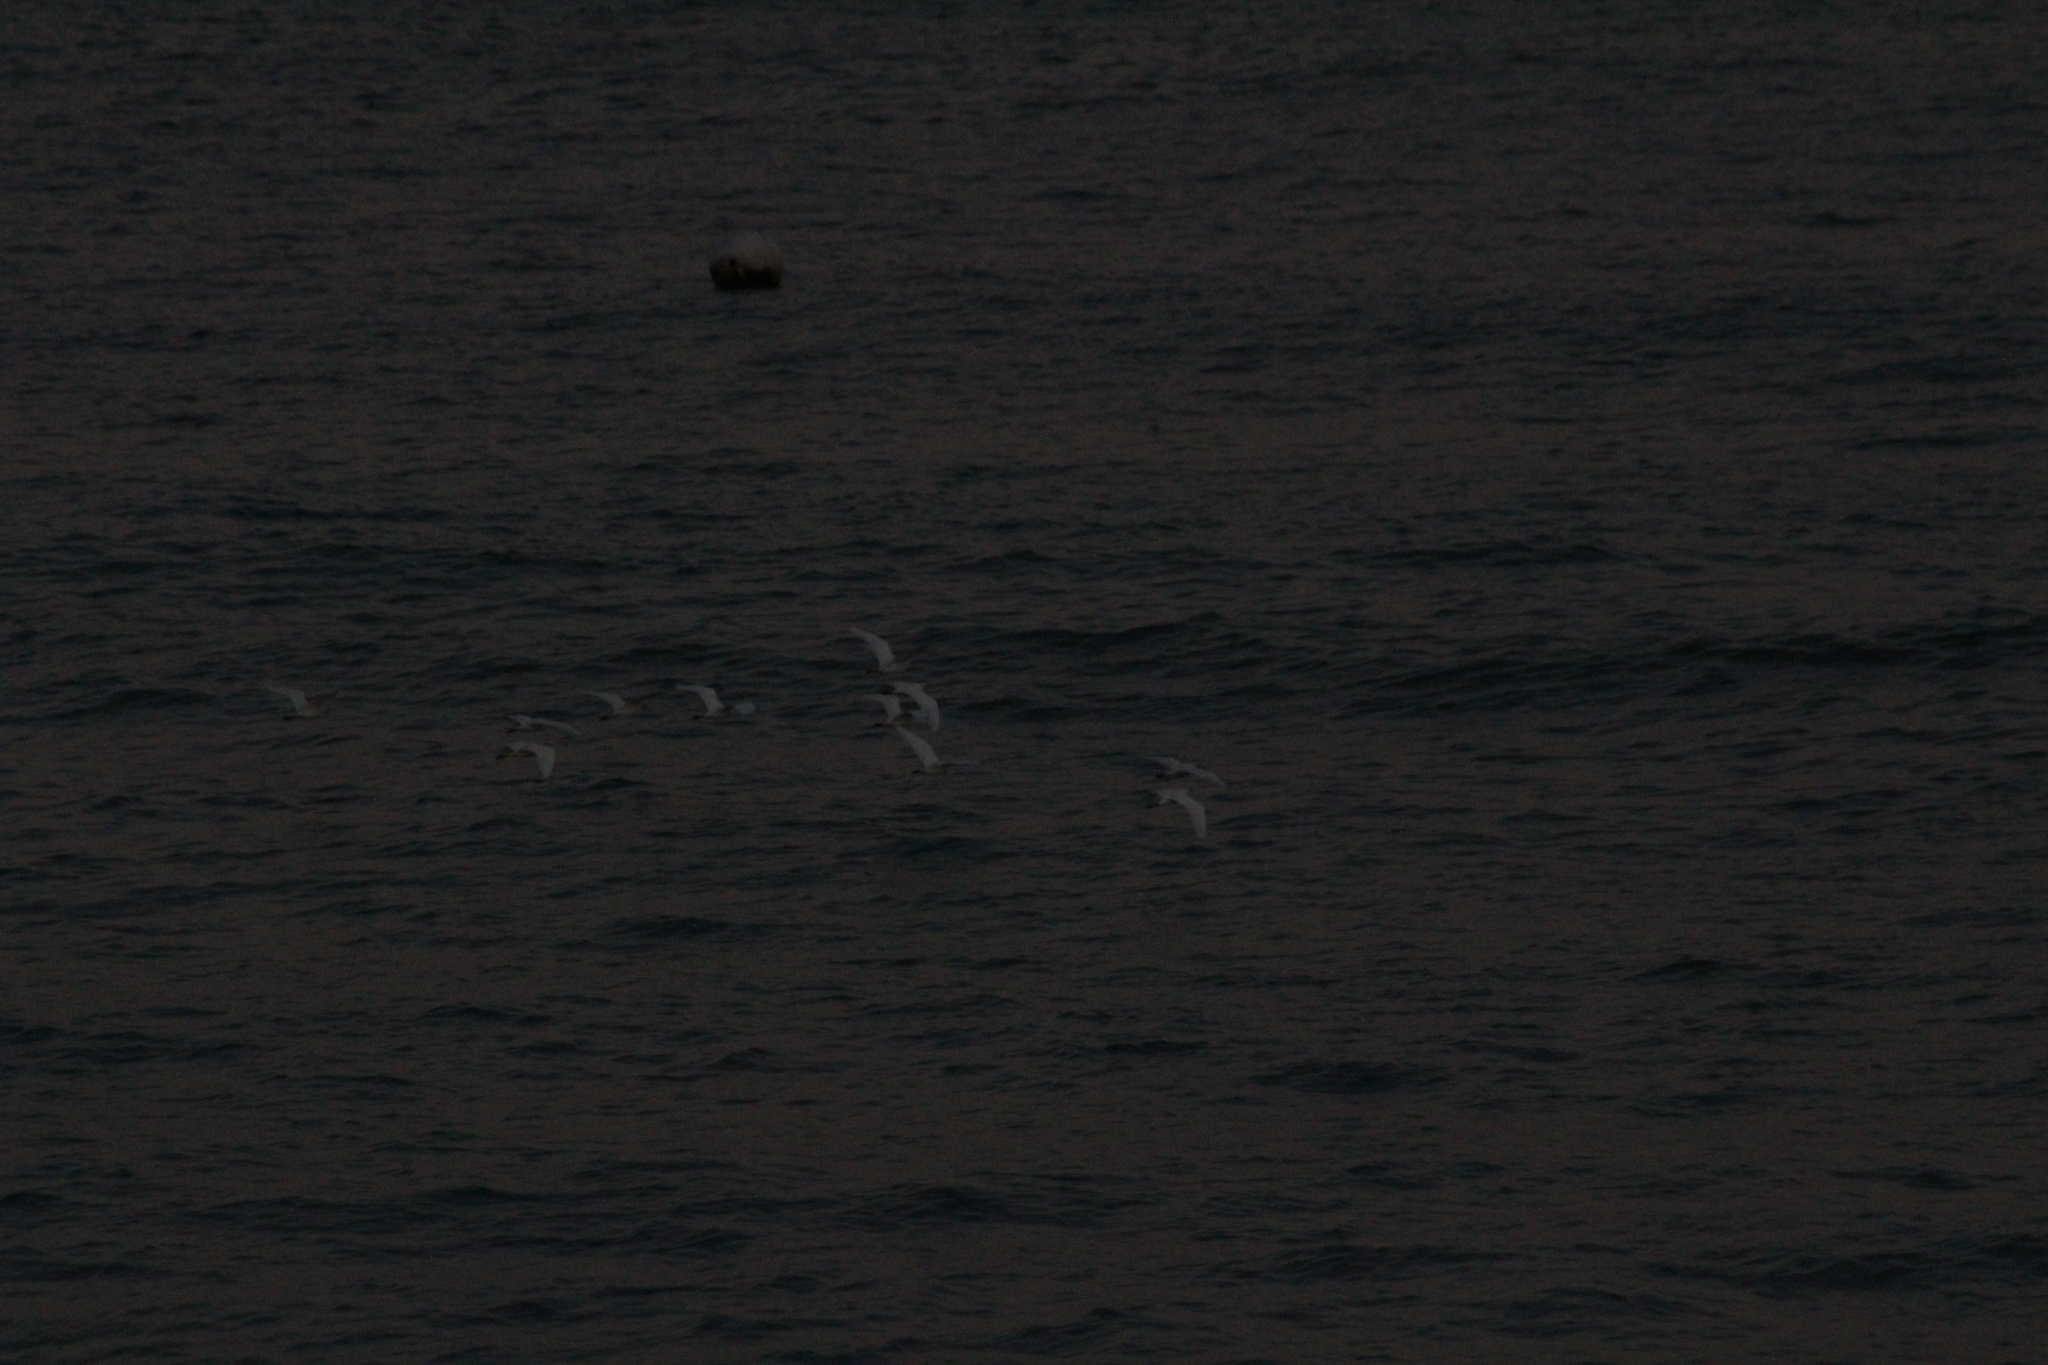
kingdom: Animalia
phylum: Chordata
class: Aves
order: Pelecaniformes
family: Ardeidae
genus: Bubulcus
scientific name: Bubulcus ibis
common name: Cattle egret
